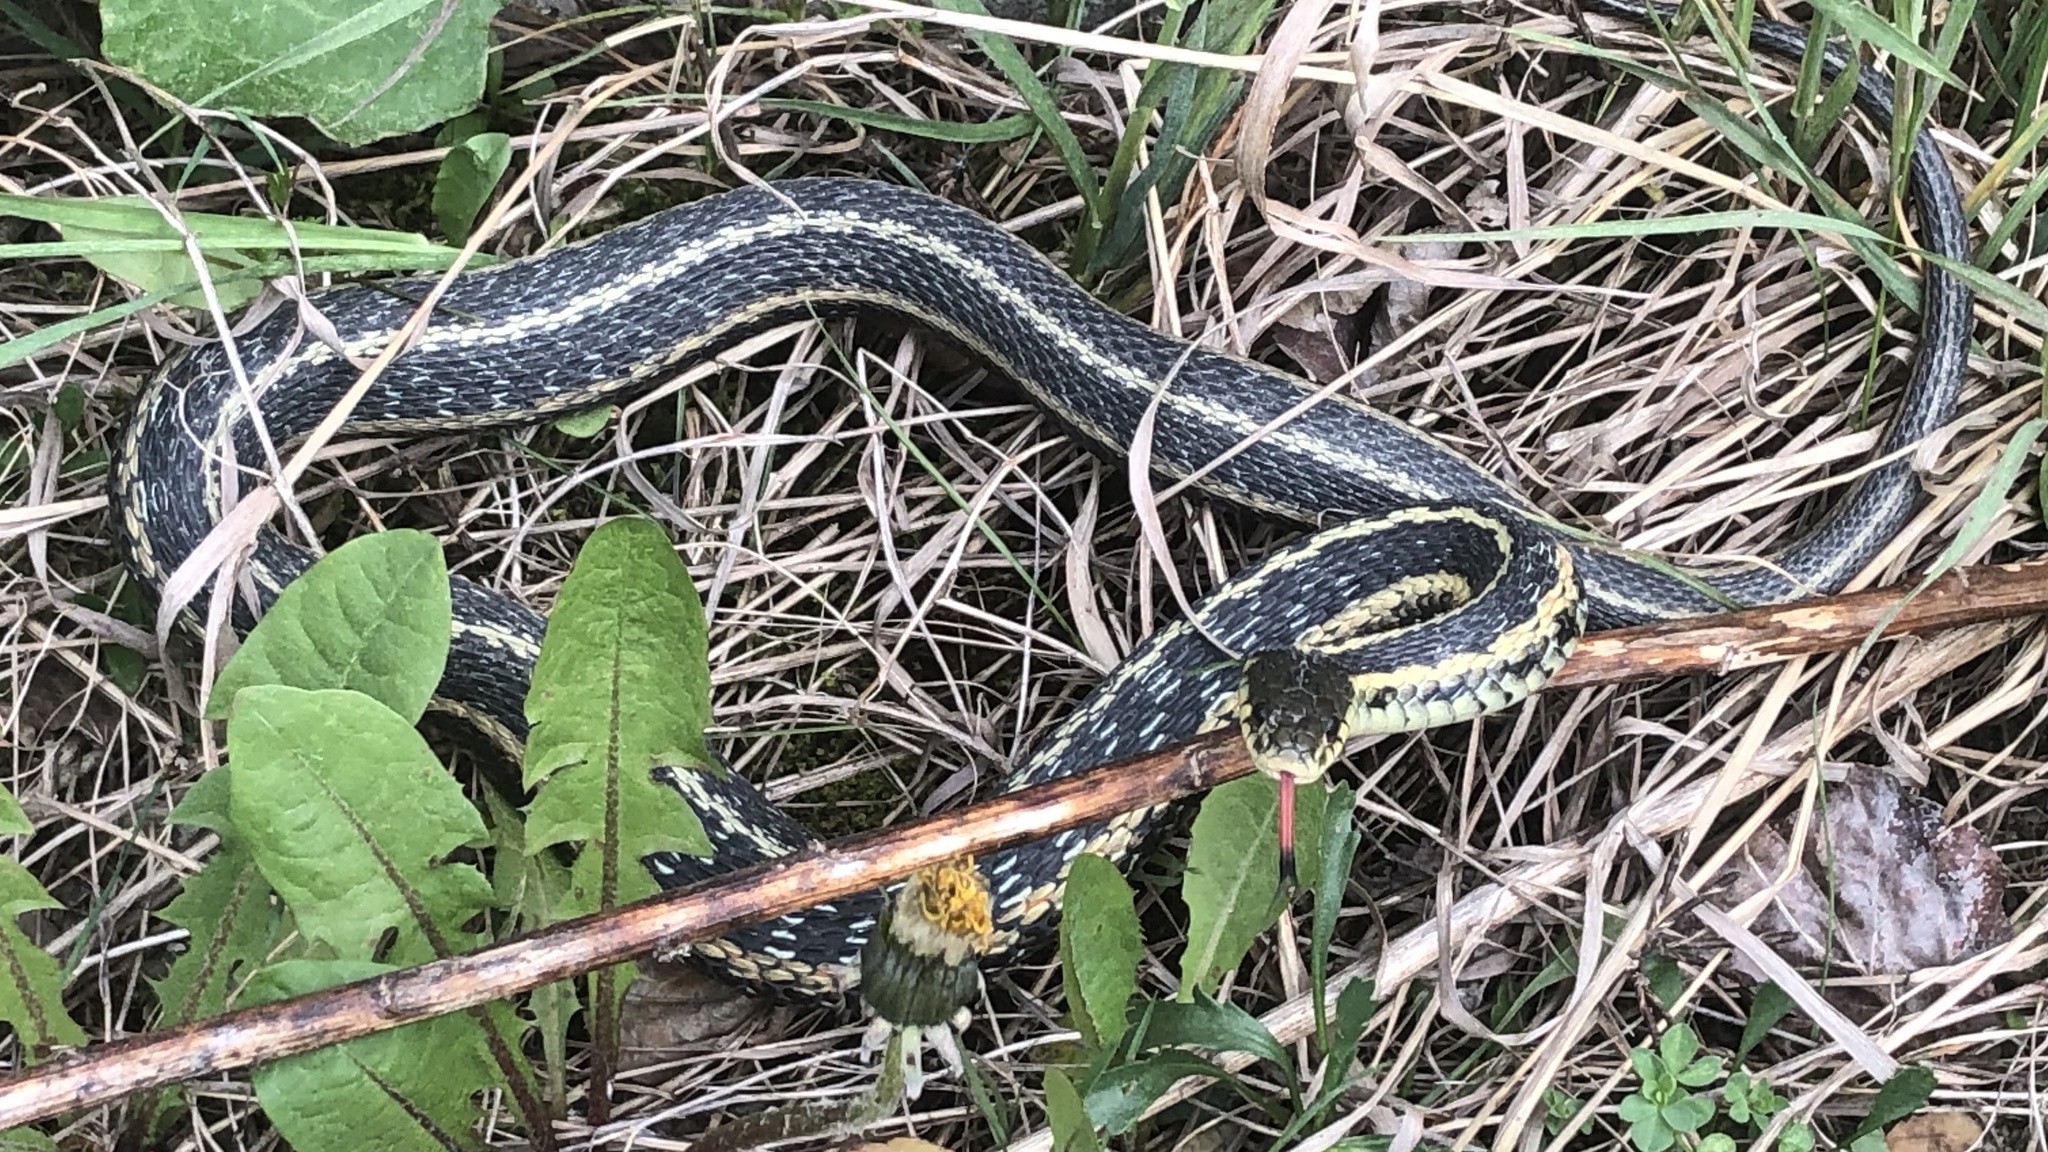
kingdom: Animalia
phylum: Chordata
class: Squamata
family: Colubridae
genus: Thamnophis
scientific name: Thamnophis sirtalis
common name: Common garter snake
